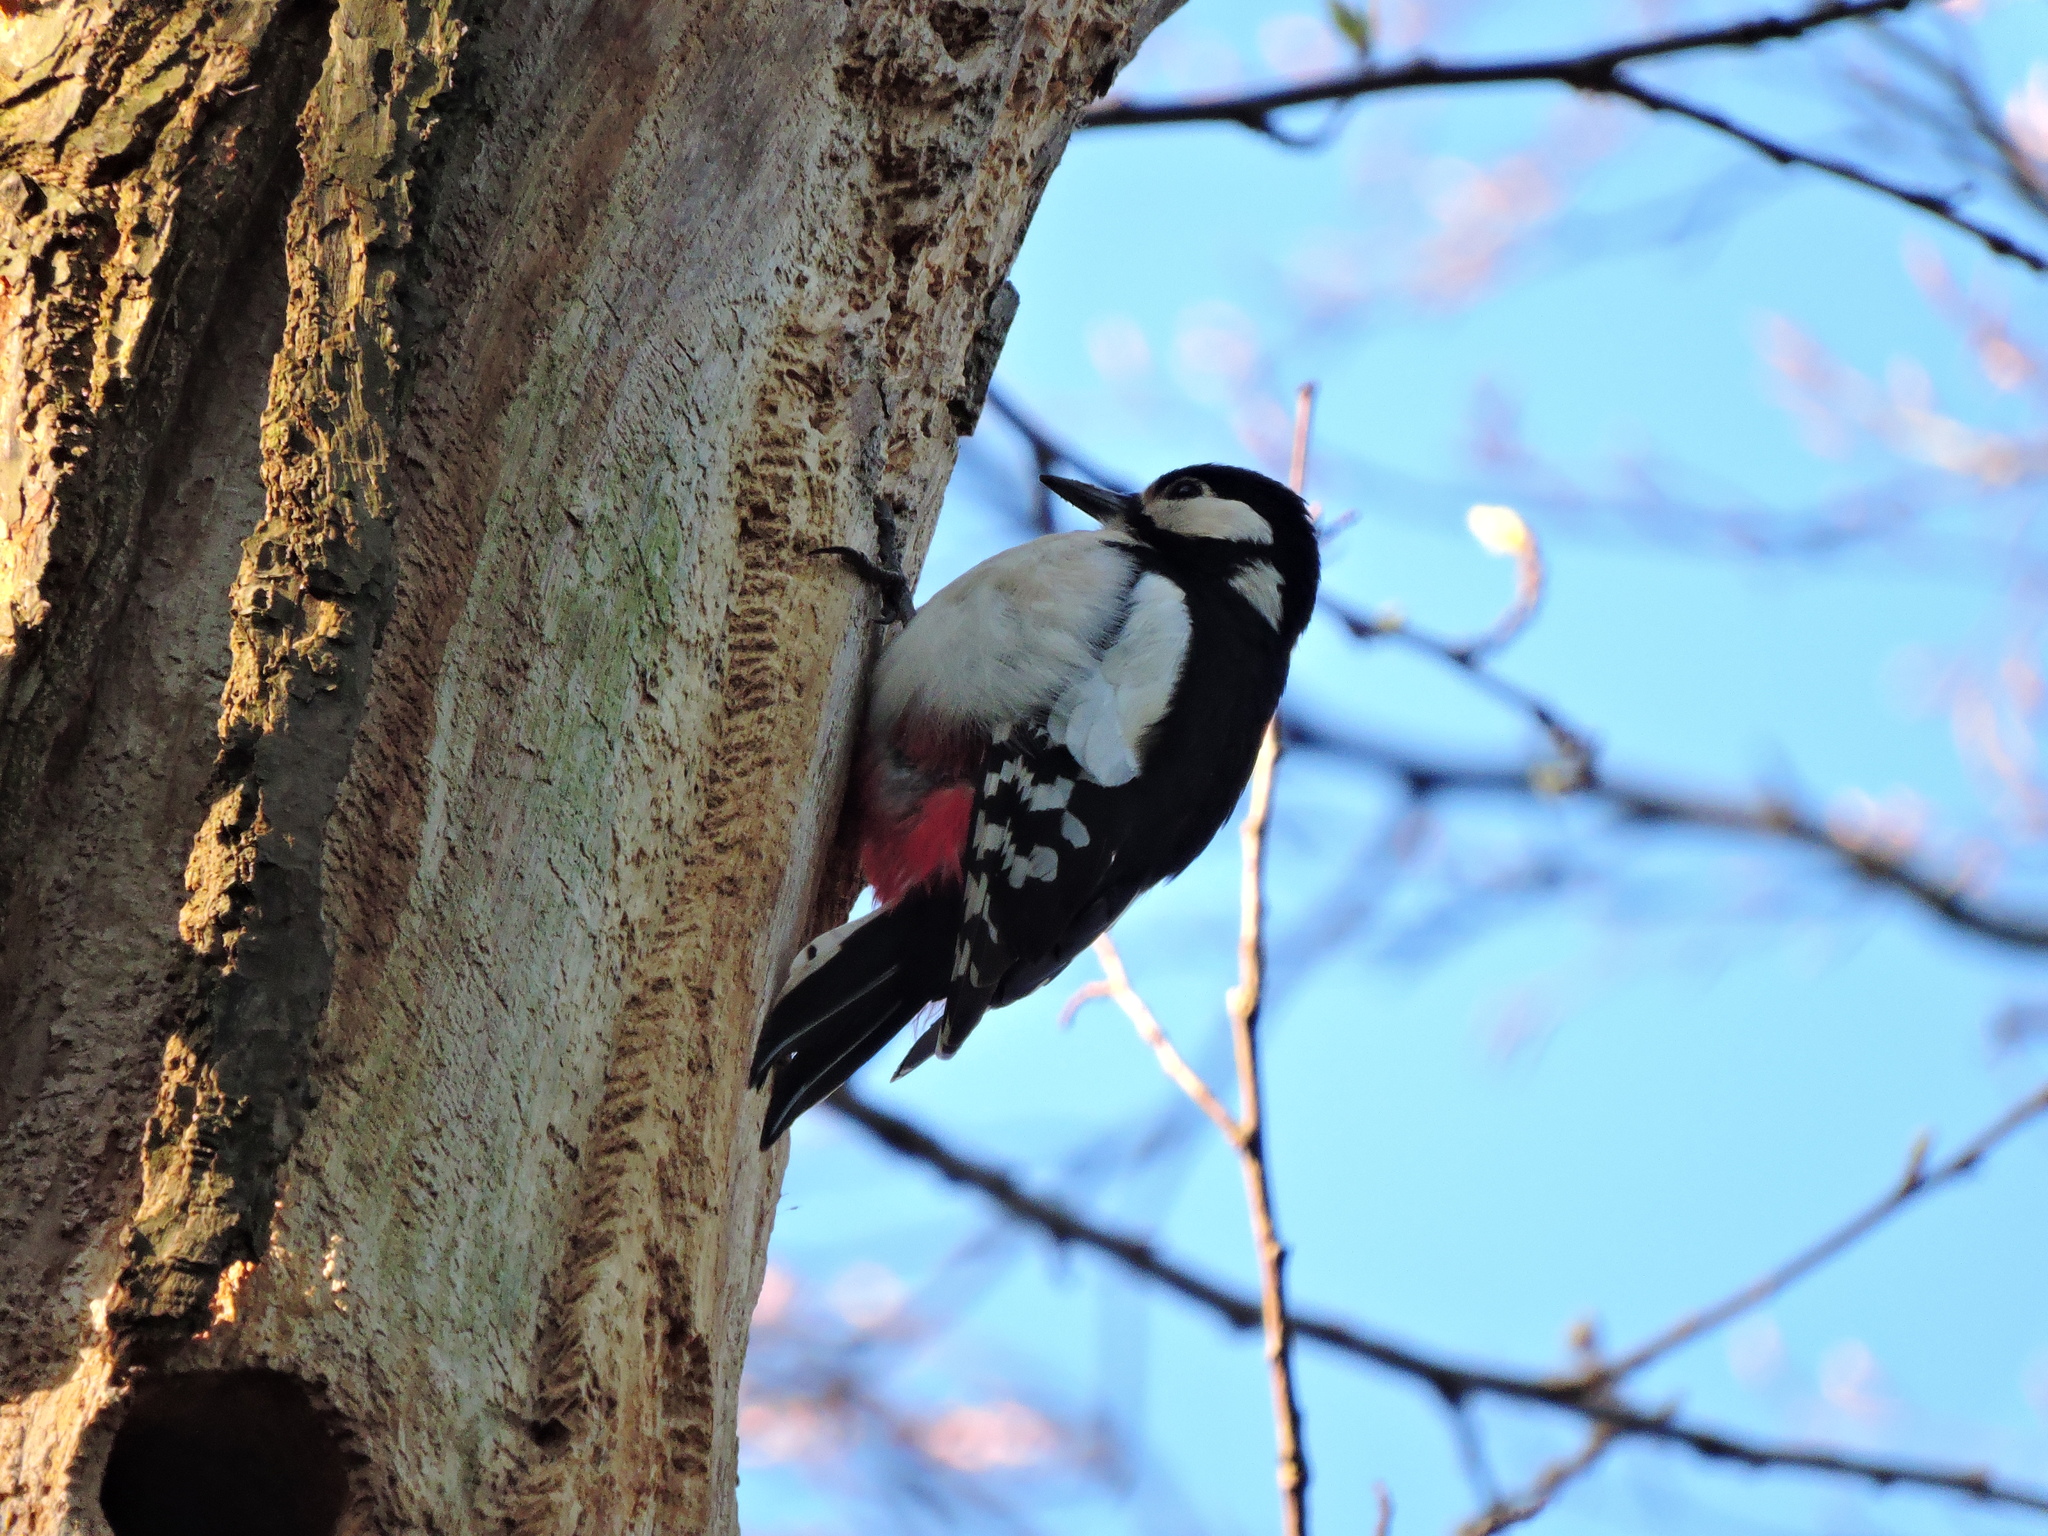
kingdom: Animalia
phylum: Chordata
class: Aves
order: Piciformes
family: Picidae
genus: Dendrocopos
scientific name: Dendrocopos major
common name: Great spotted woodpecker
